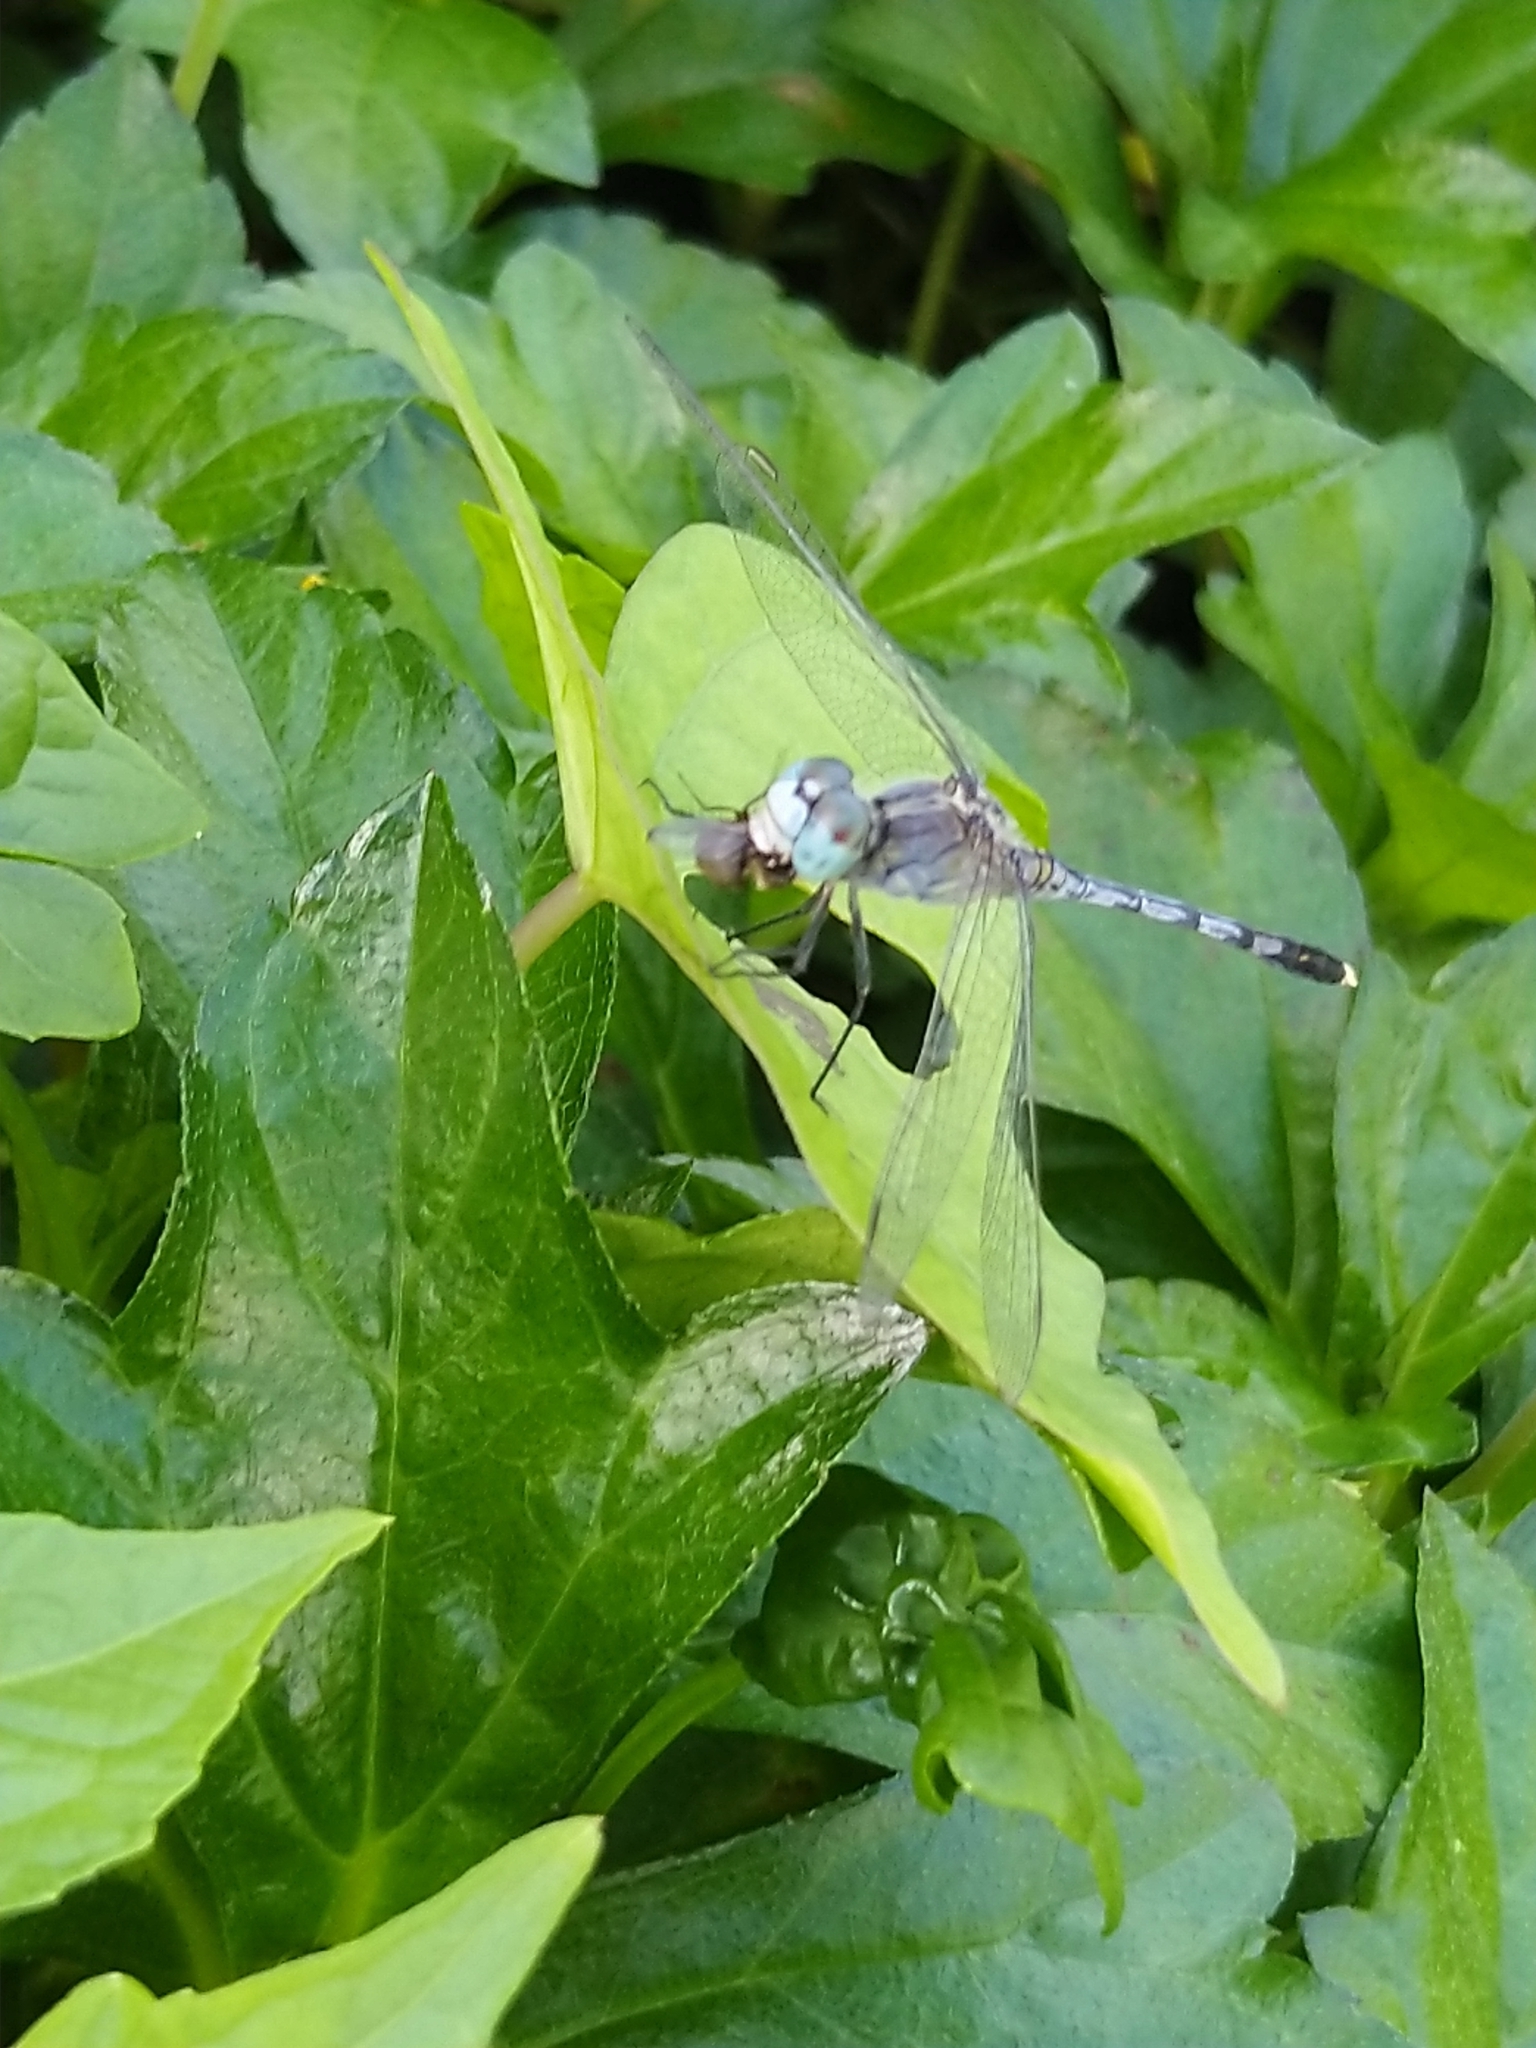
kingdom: Animalia
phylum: Arthropoda
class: Insecta
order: Odonata
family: Libellulidae
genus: Diplacodes
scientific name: Diplacodes trivialis
